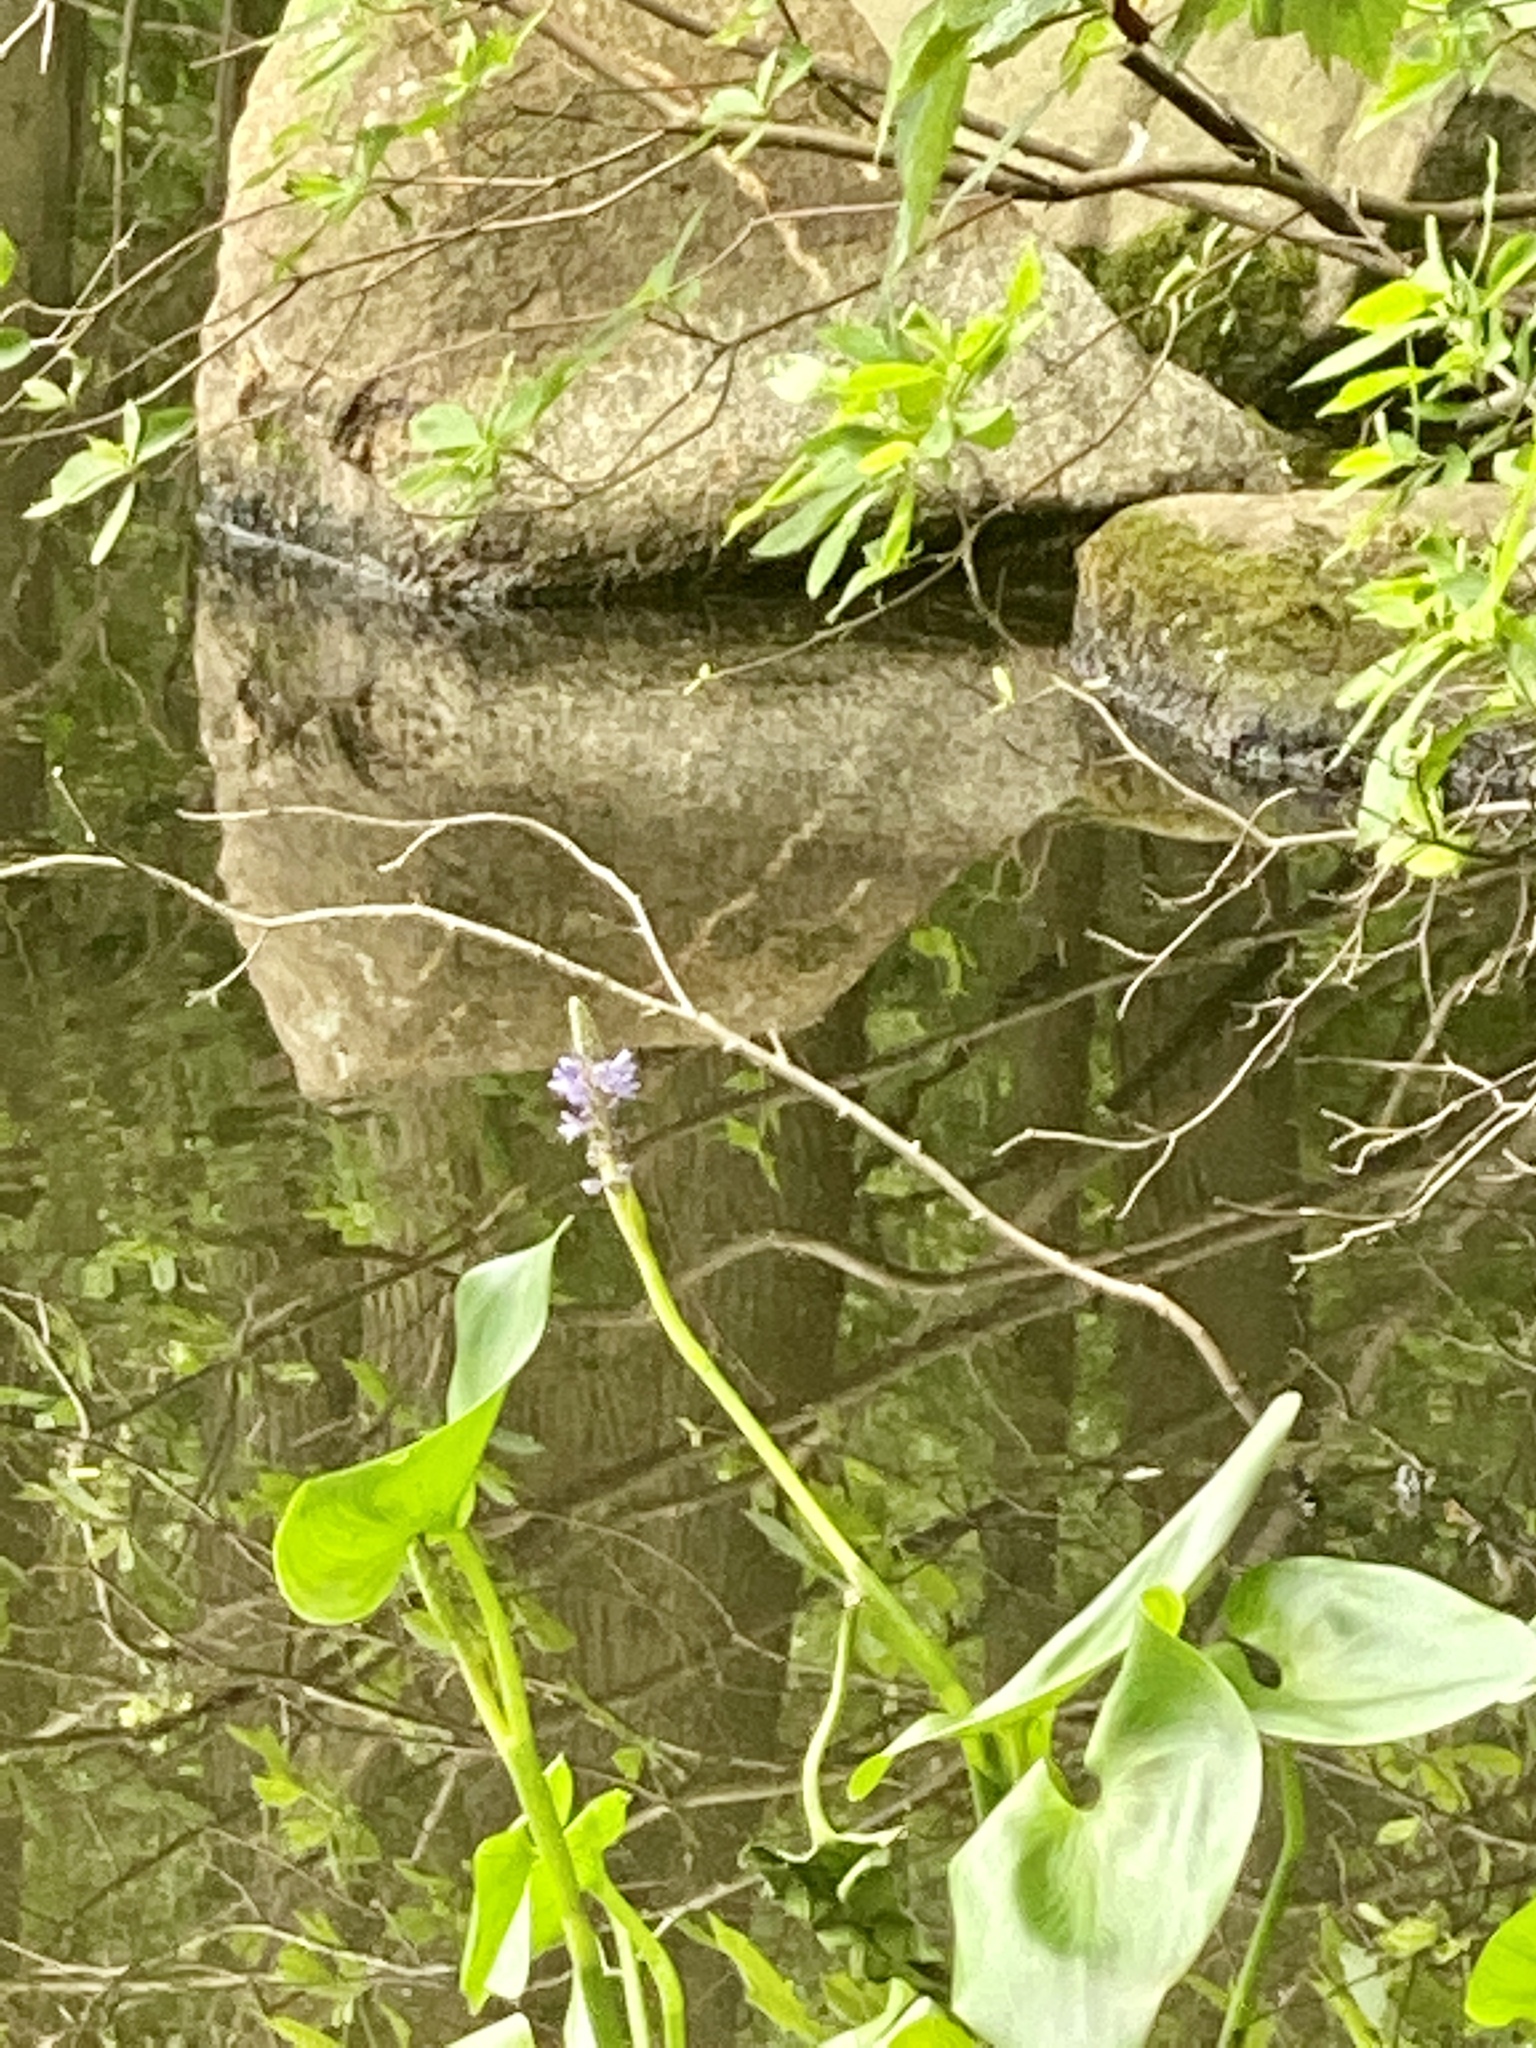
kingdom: Plantae
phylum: Tracheophyta
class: Liliopsida
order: Commelinales
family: Pontederiaceae
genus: Pontederia
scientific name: Pontederia cordata
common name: Pickerelweed
